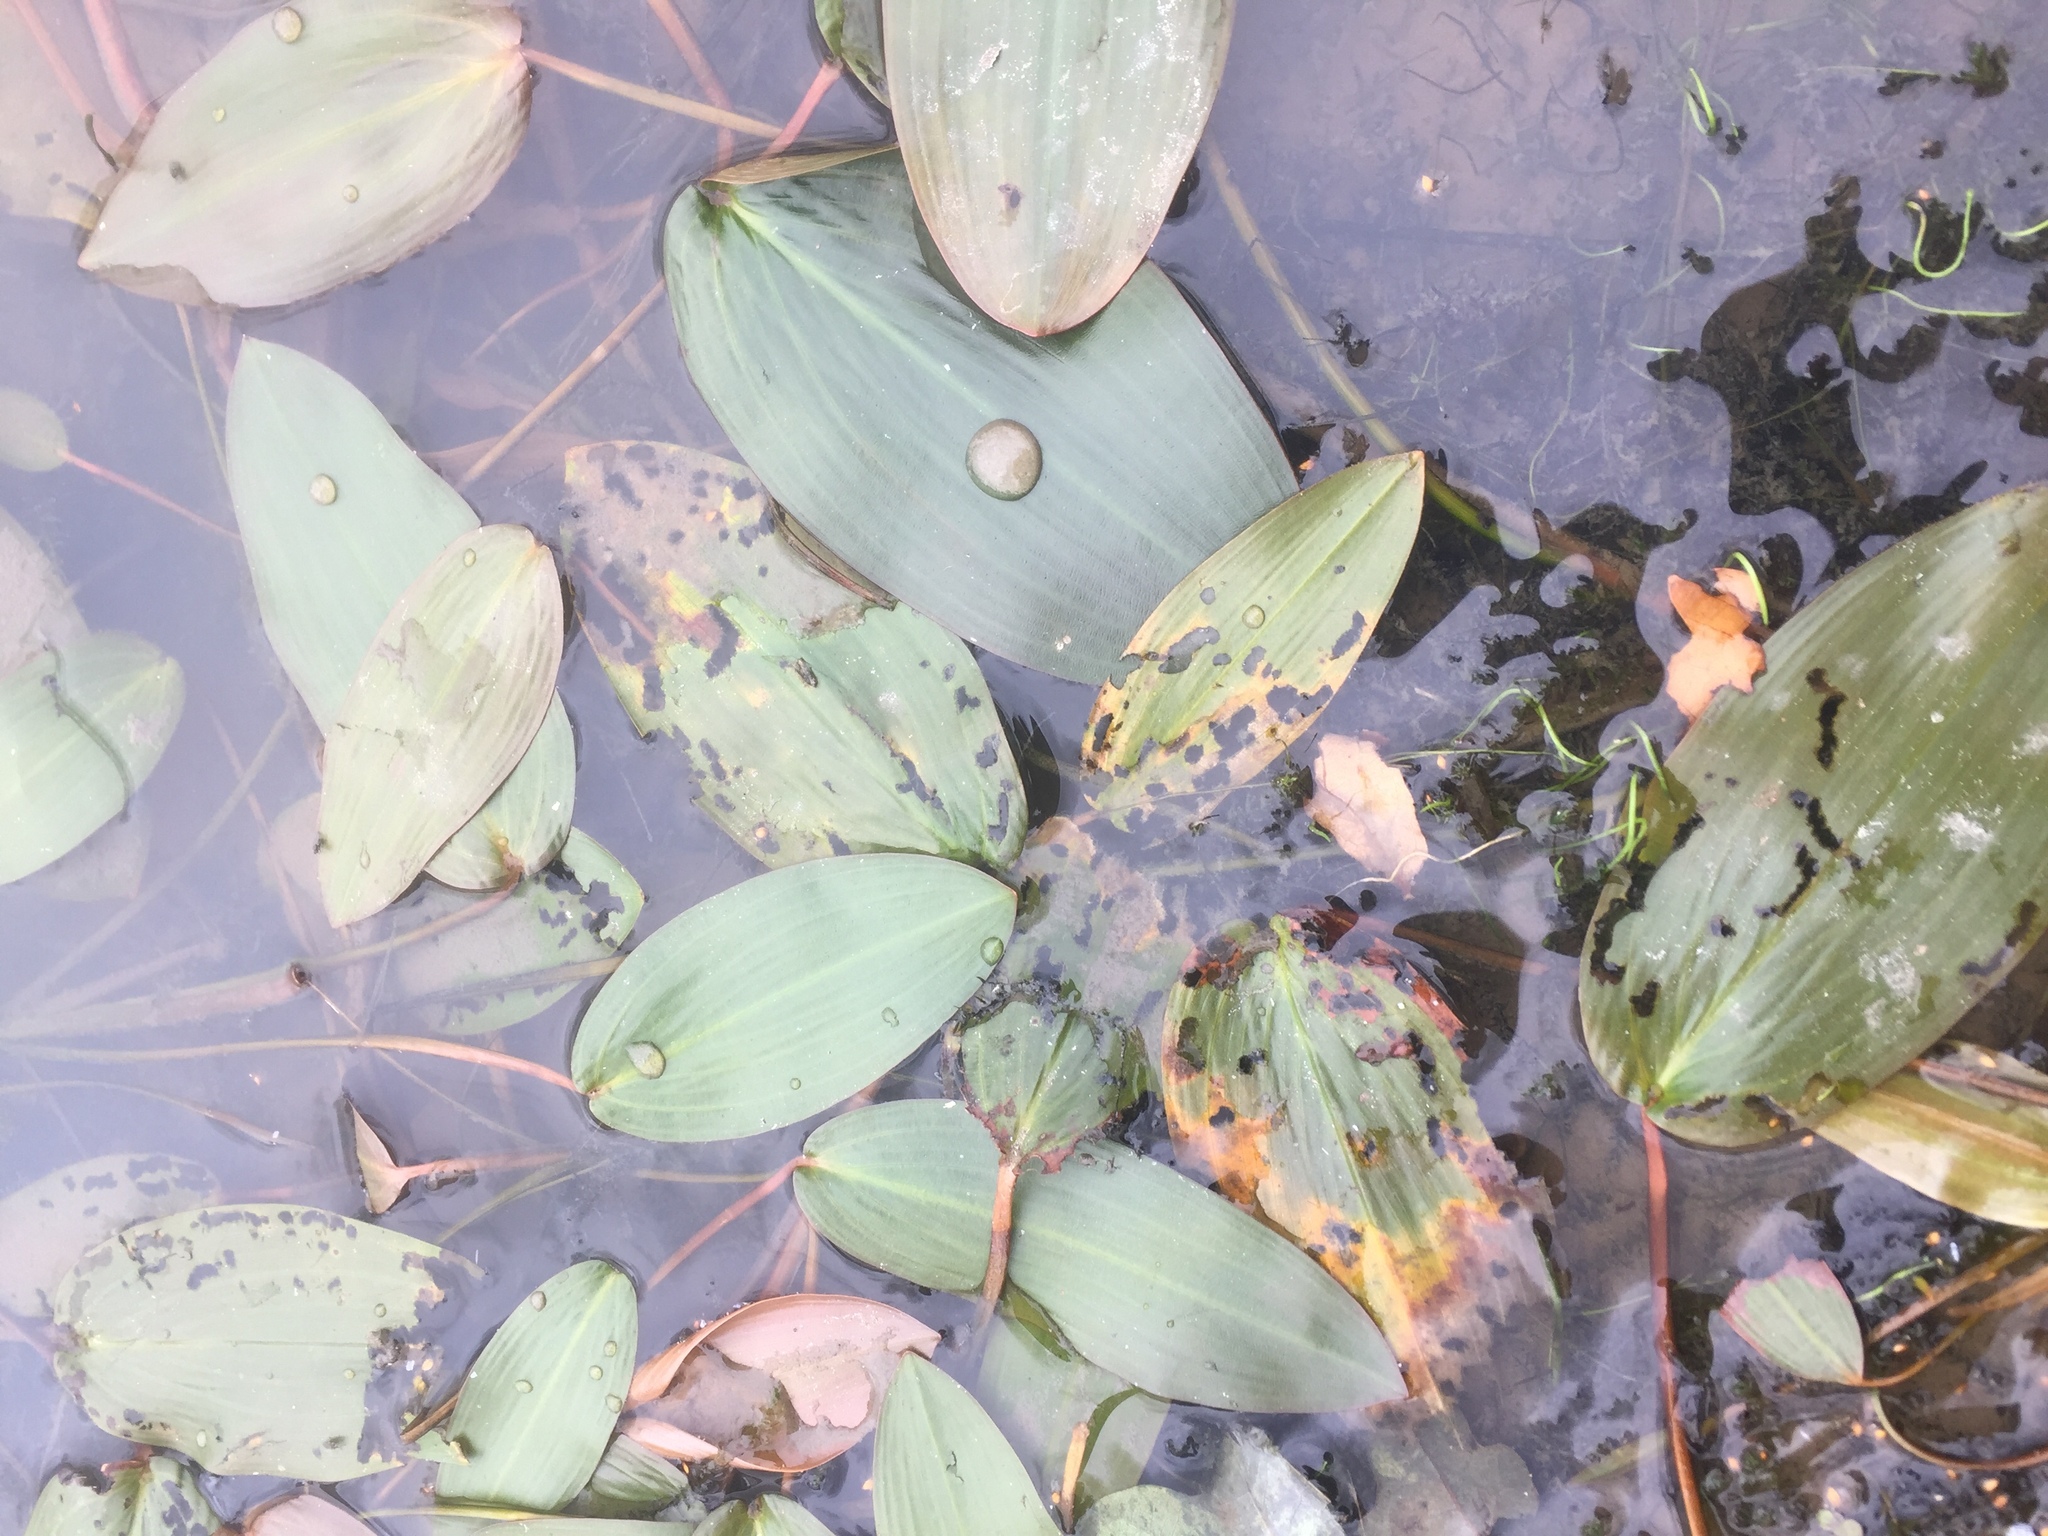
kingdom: Plantae
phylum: Tracheophyta
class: Liliopsida
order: Alismatales
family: Potamogetonaceae
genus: Potamogeton
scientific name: Potamogeton natans
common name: Broad-leaved pondweed
